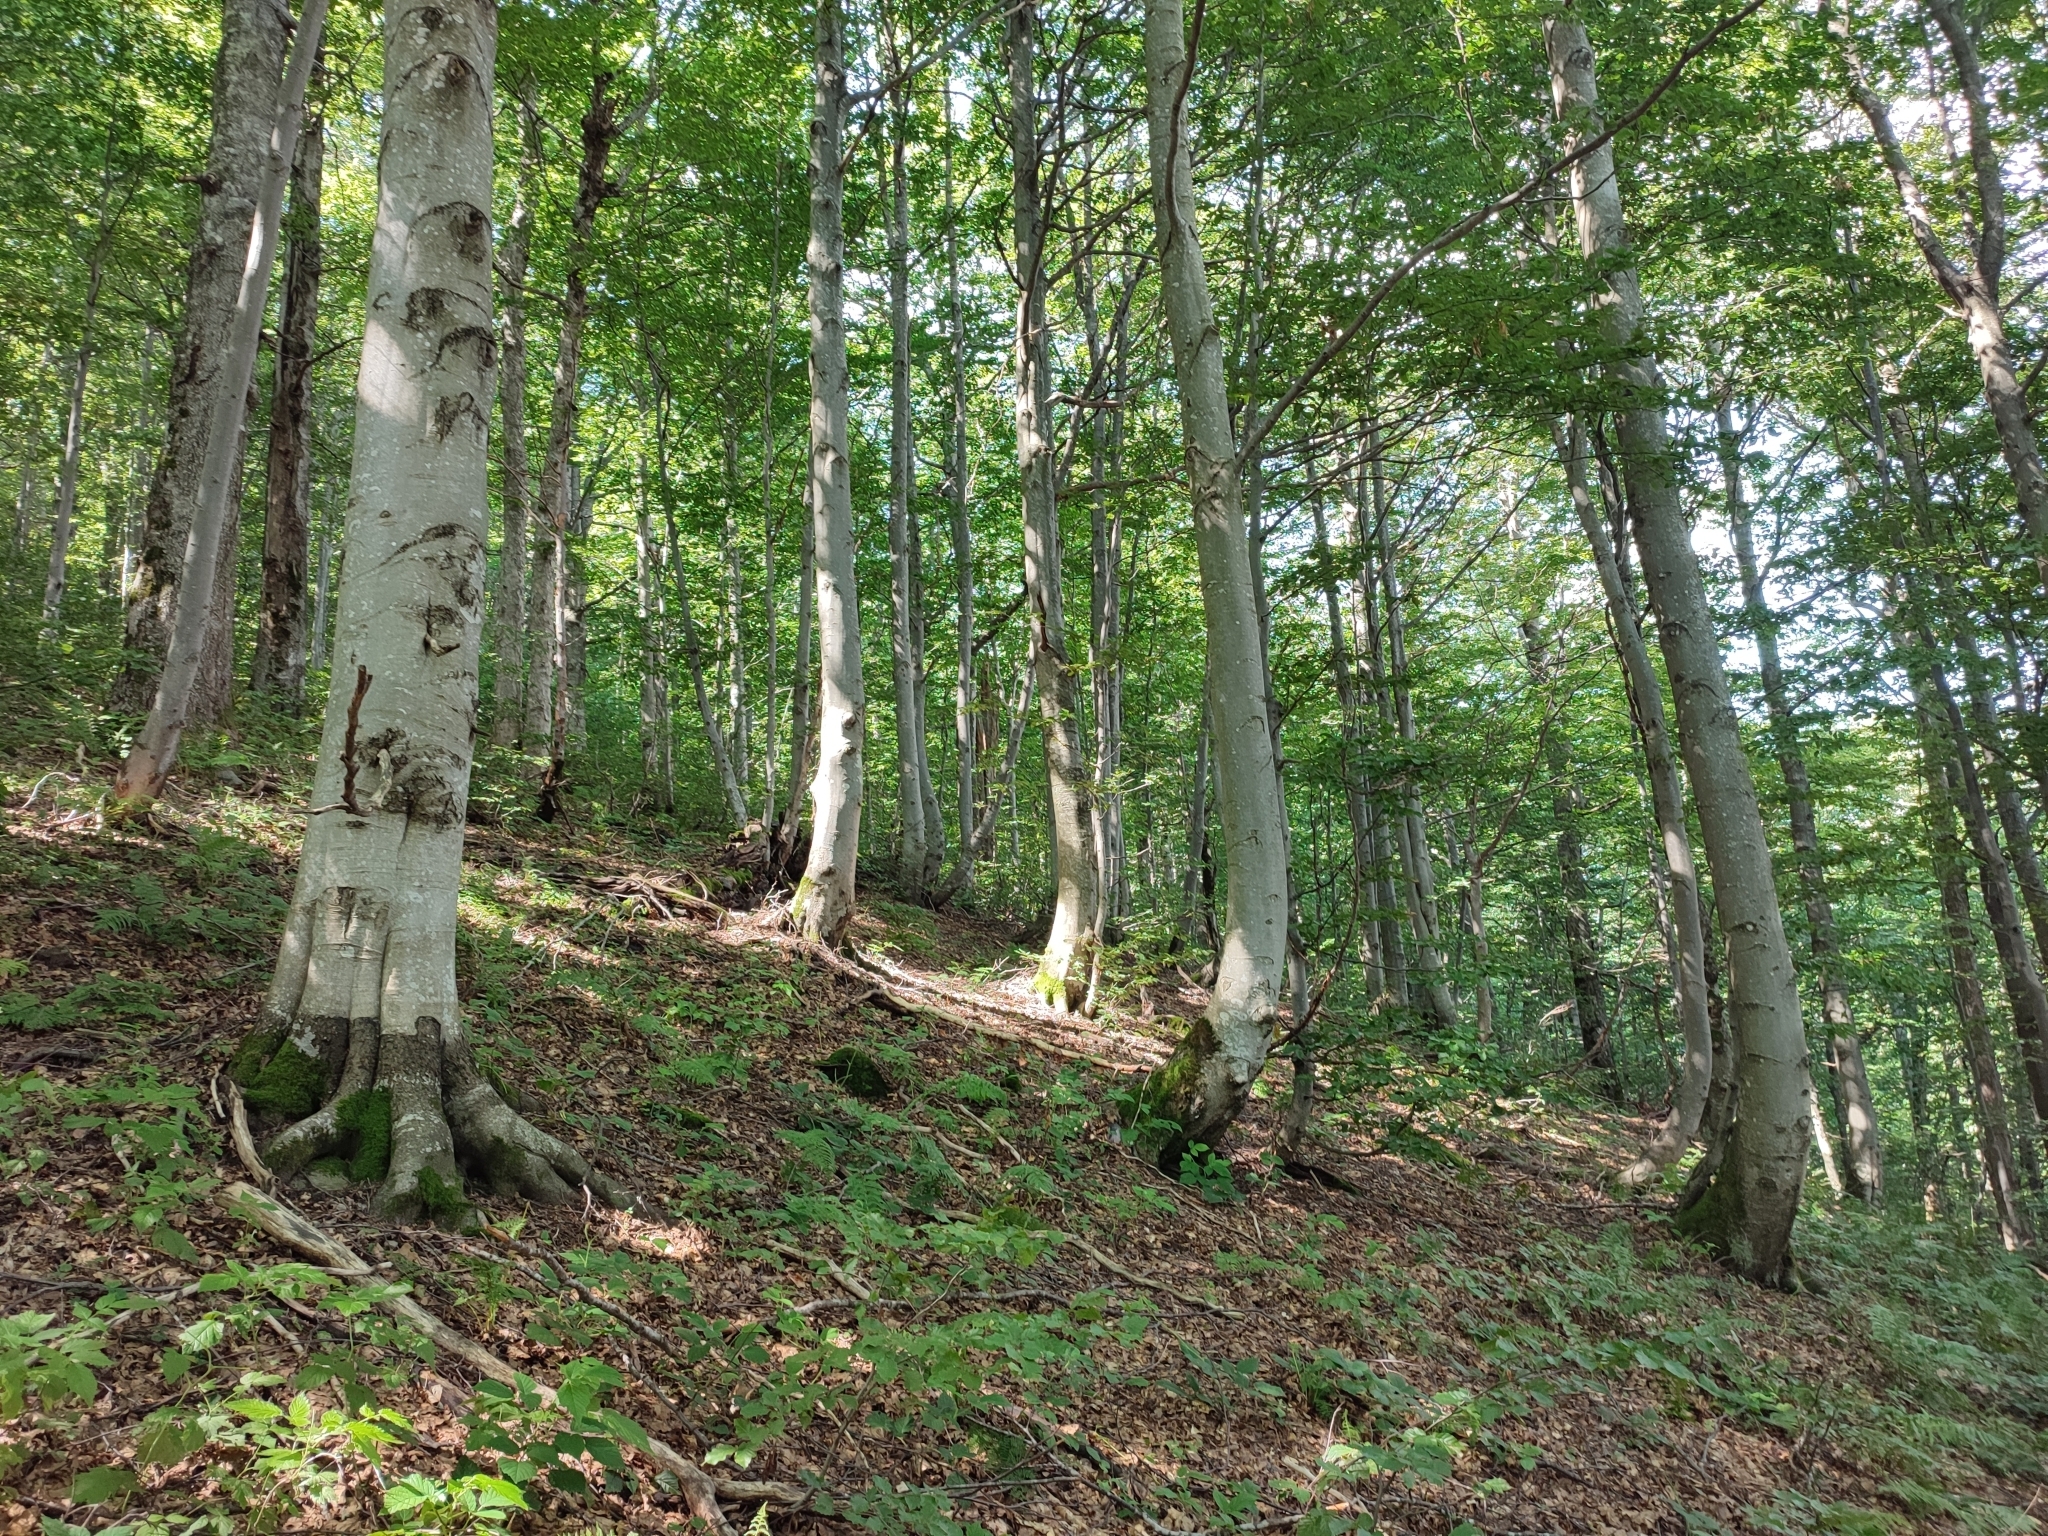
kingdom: Plantae
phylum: Tracheophyta
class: Magnoliopsida
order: Fagales
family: Fagaceae
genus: Fagus
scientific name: Fagus sylvatica
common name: Beech
